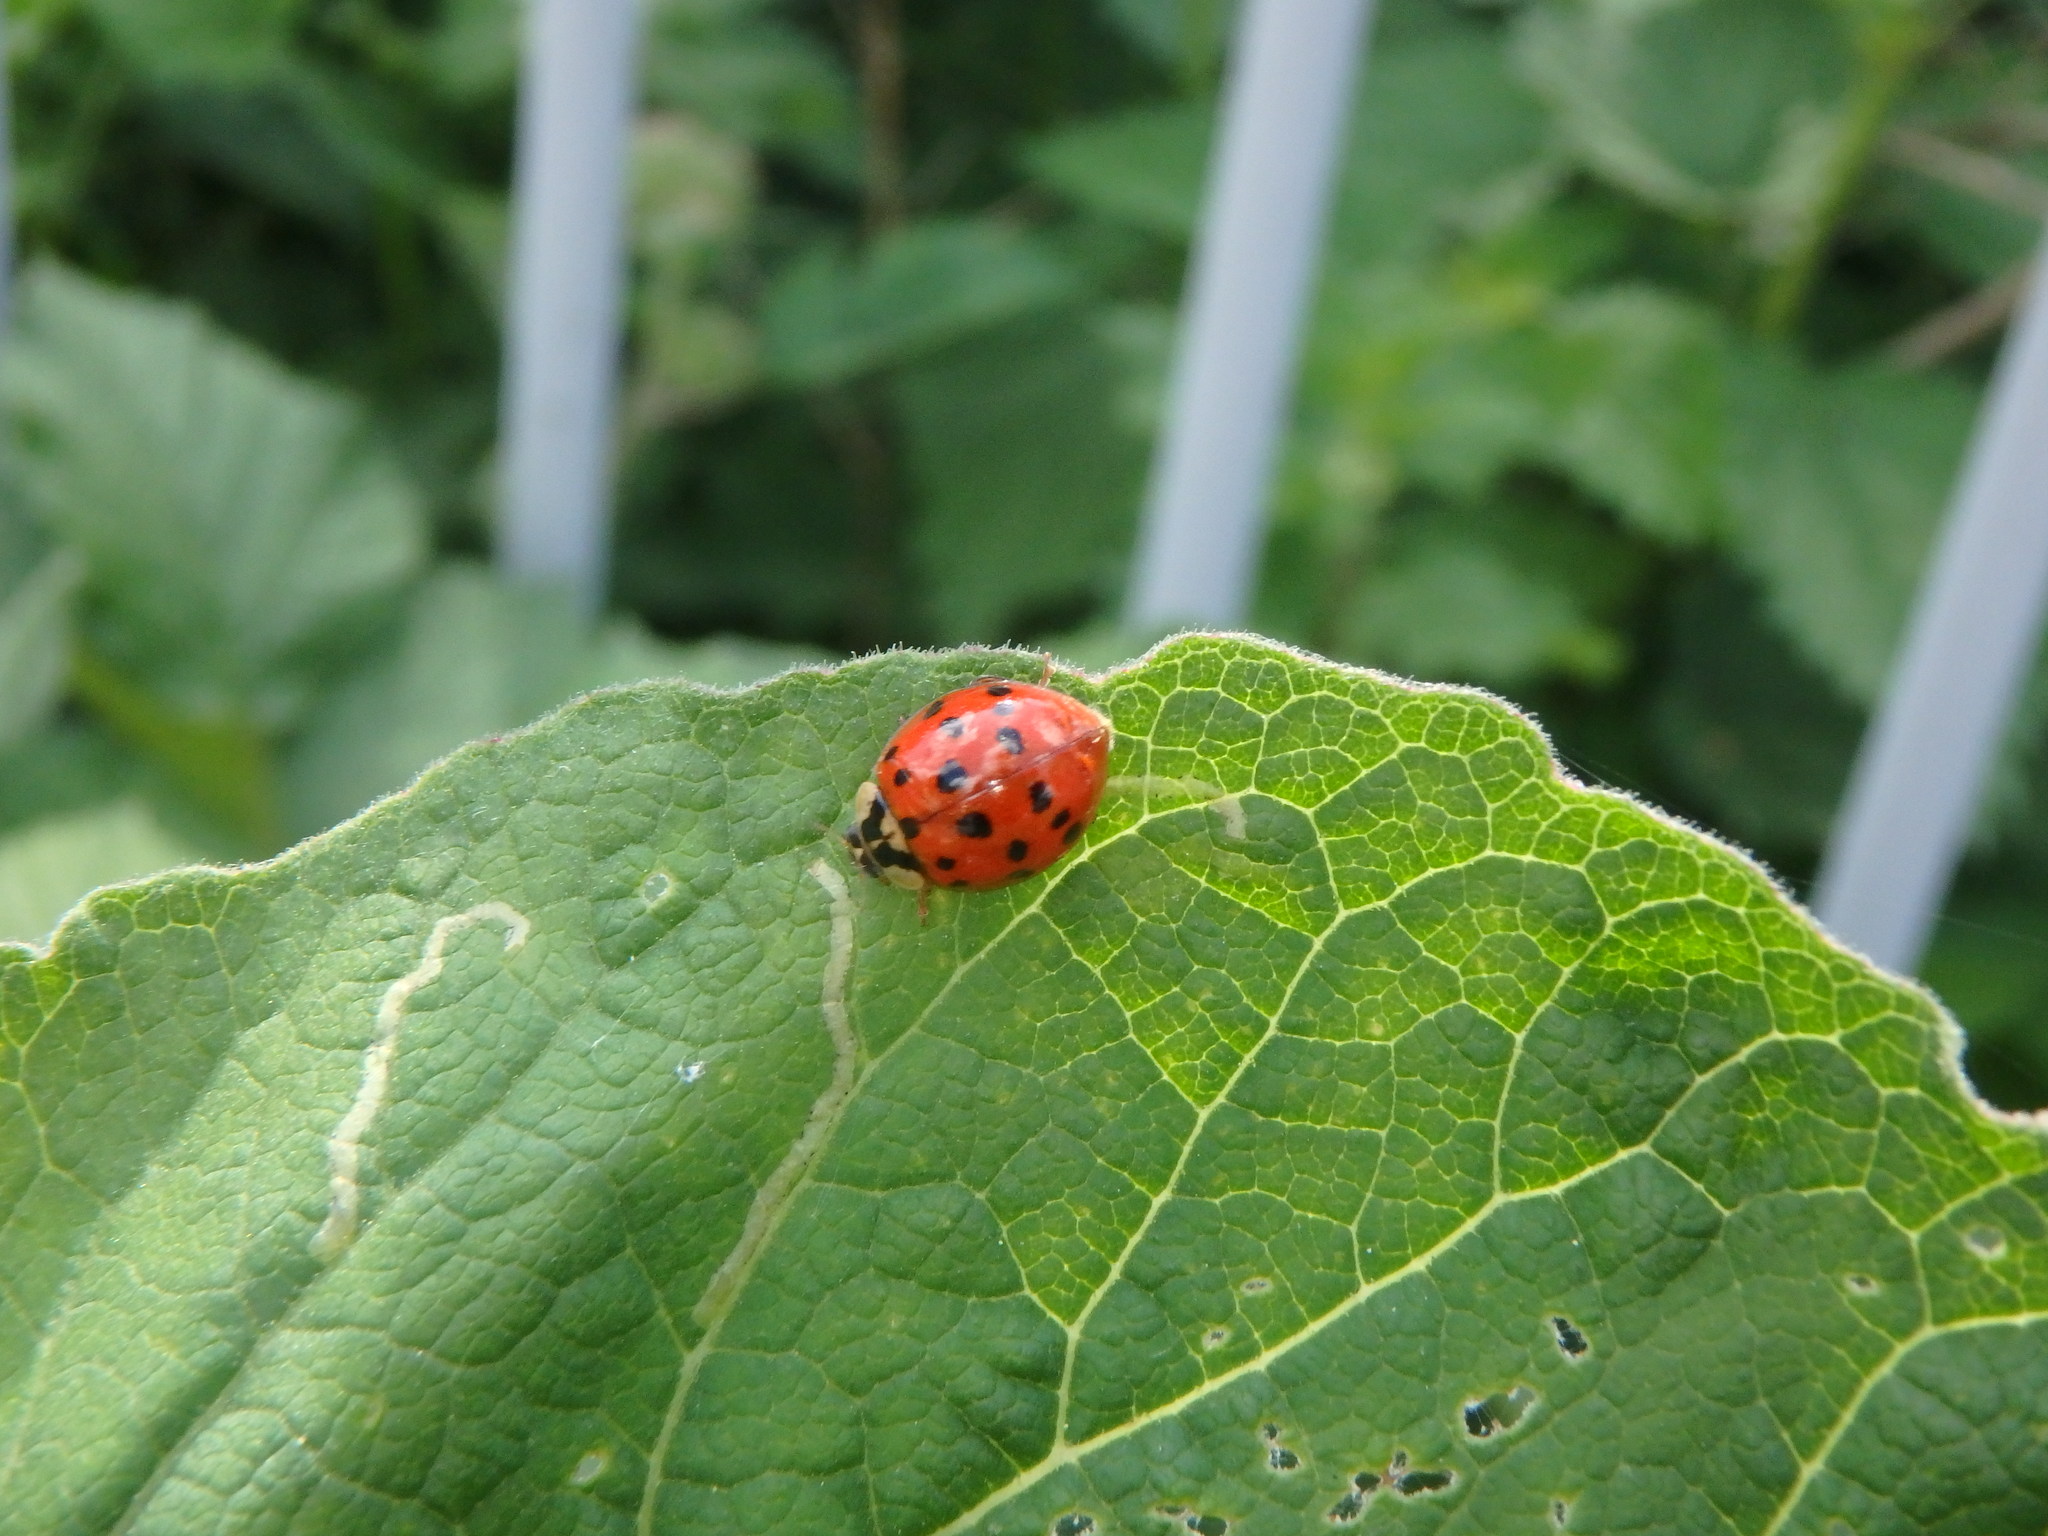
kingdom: Animalia
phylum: Arthropoda
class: Insecta
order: Coleoptera
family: Coccinellidae
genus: Harmonia
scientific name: Harmonia axyridis
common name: Harlequin ladybird
